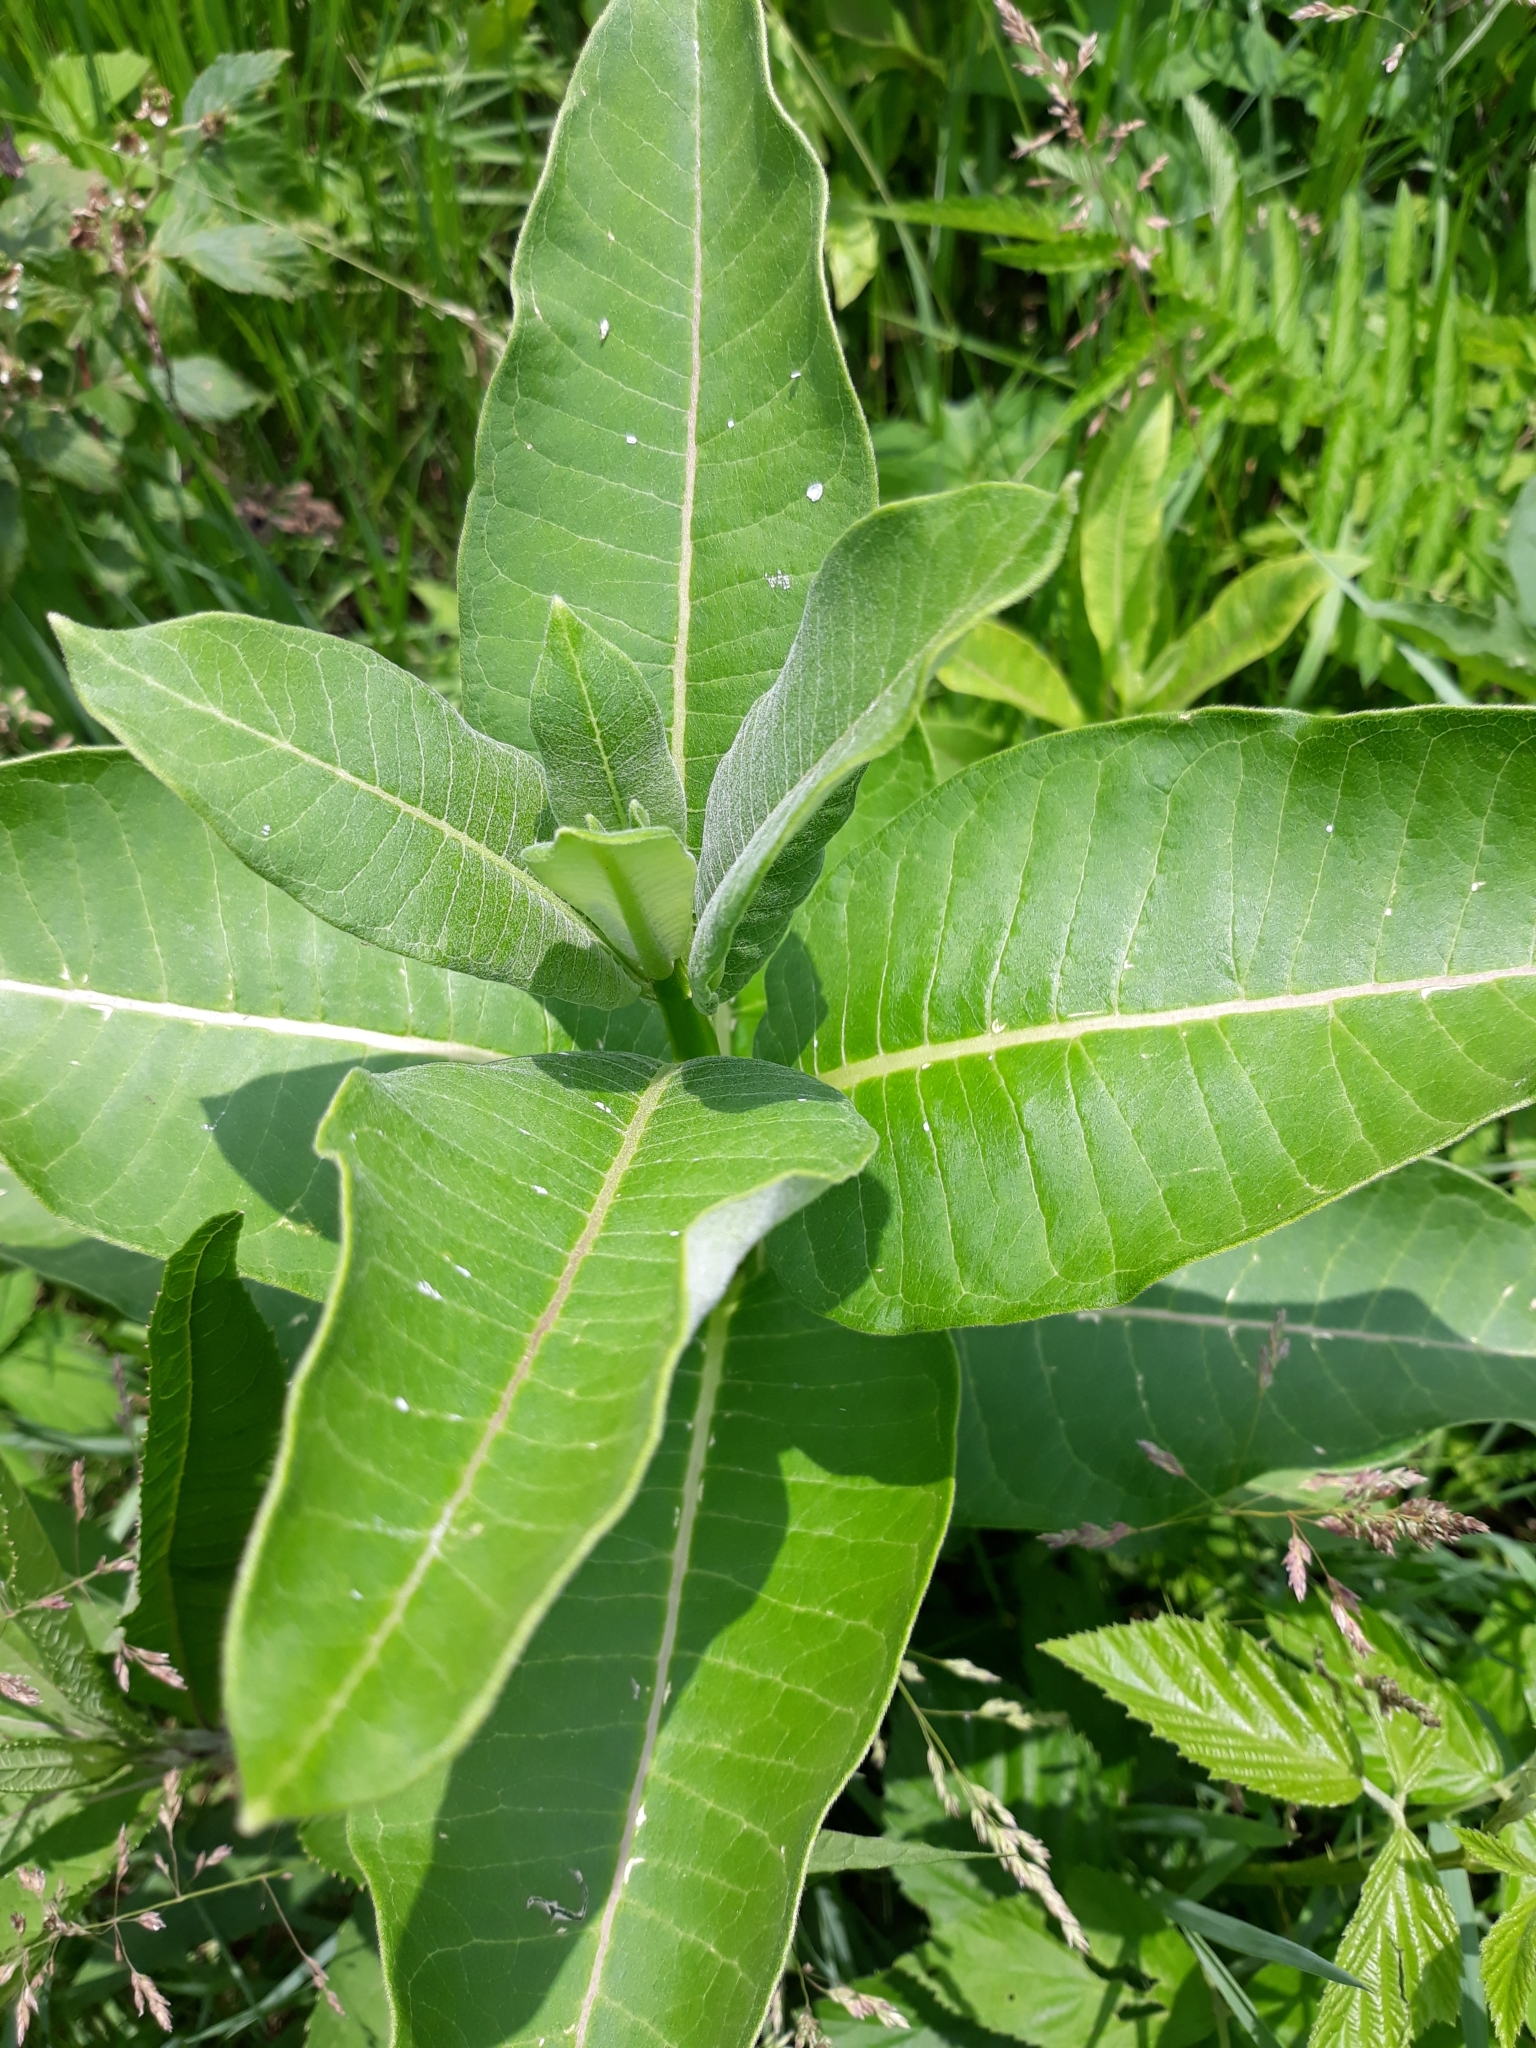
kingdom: Plantae
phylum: Tracheophyta
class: Magnoliopsida
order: Gentianales
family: Apocynaceae
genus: Asclepias
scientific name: Asclepias syriaca
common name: Common milkweed
